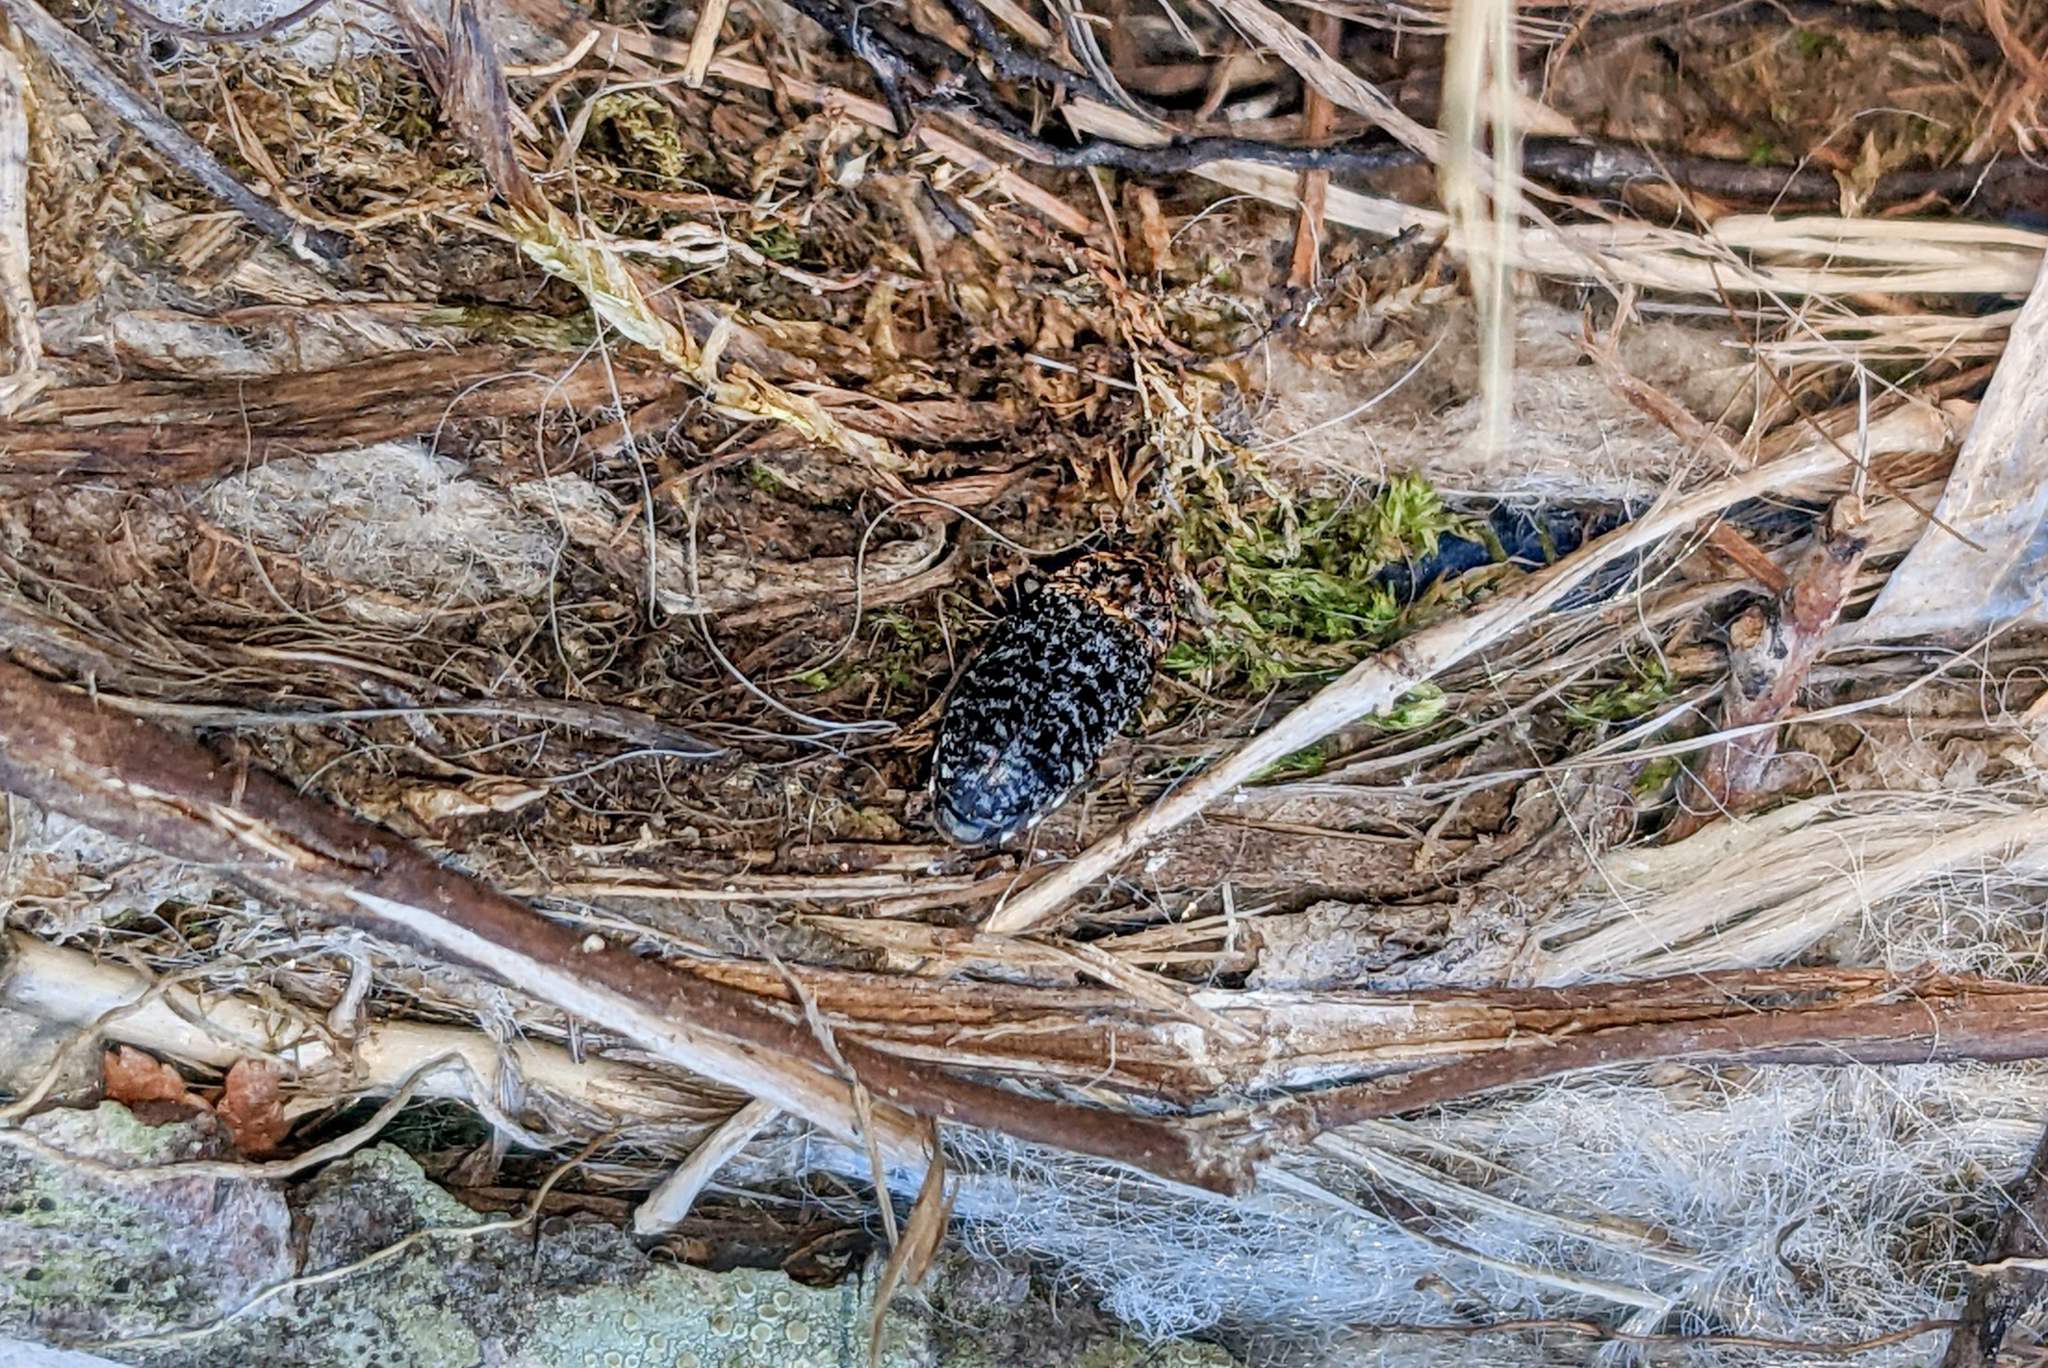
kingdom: Animalia
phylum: Arthropoda
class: Insecta
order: Coleoptera
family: Dermestidae
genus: Dermestes
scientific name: Dermestes talpinus
